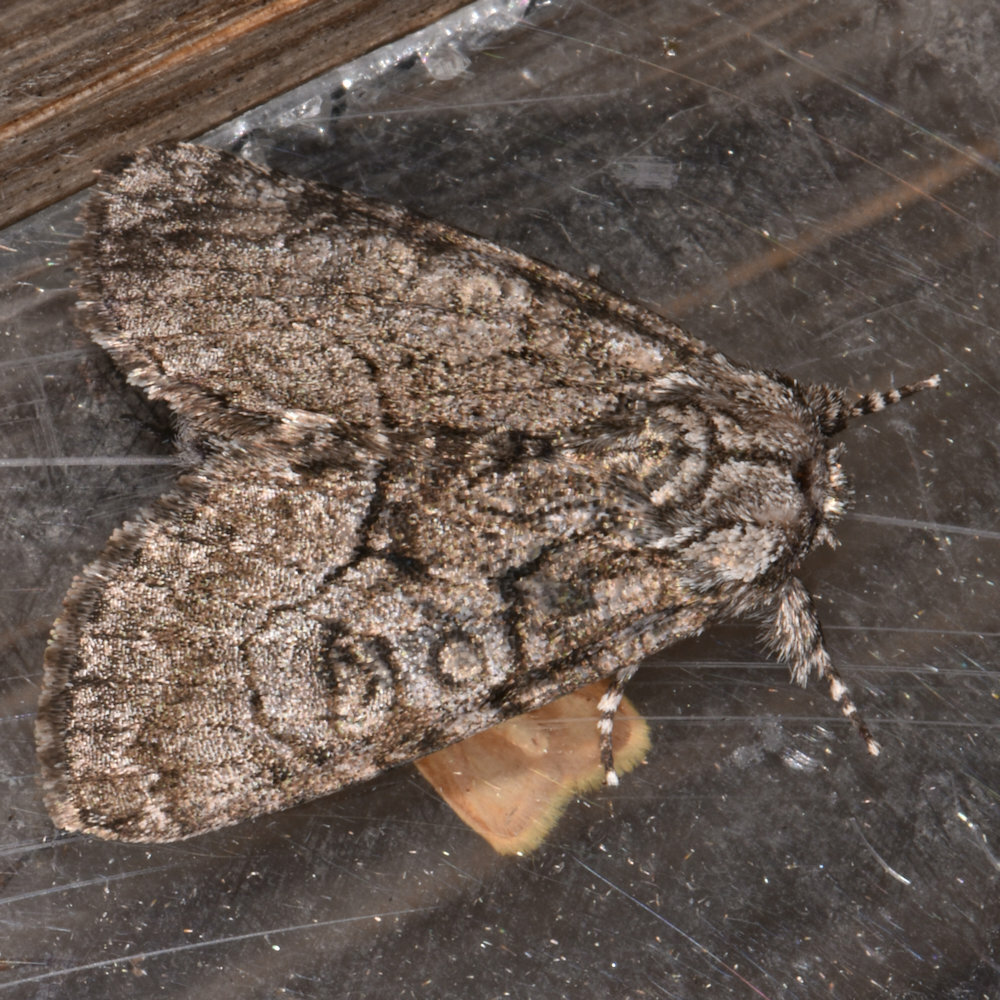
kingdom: Animalia
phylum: Arthropoda
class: Insecta
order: Lepidoptera
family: Noctuidae
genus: Raphia
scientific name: Raphia frater
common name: Brother
